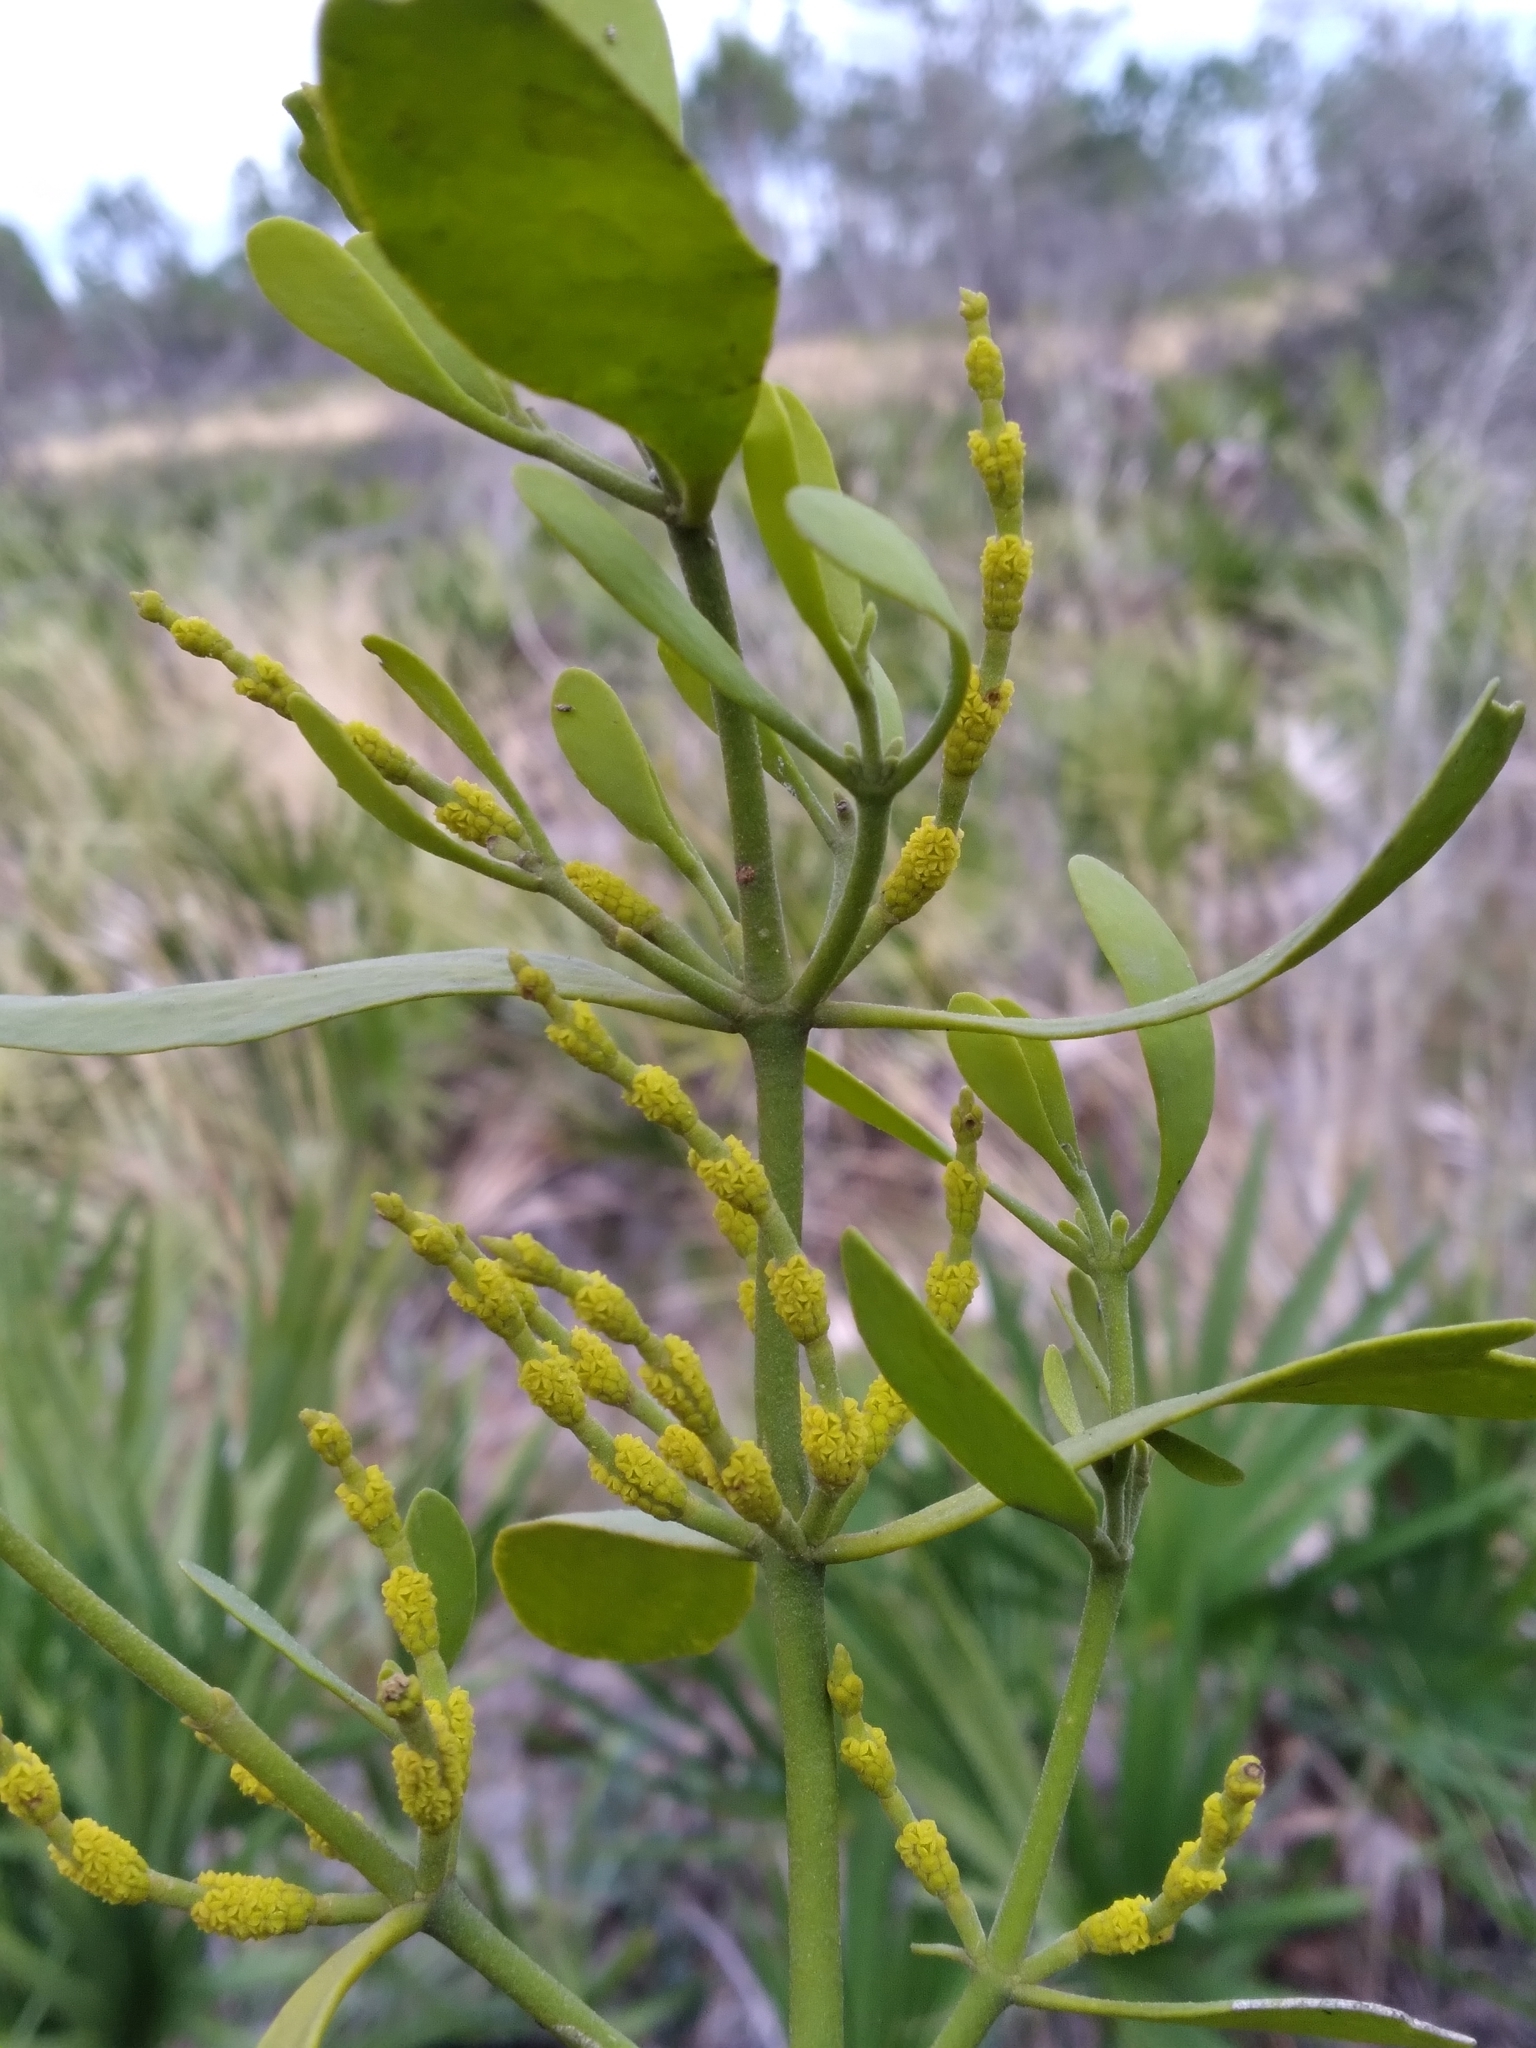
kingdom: Plantae
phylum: Tracheophyta
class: Magnoliopsida
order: Santalales
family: Viscaceae
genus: Phoradendron
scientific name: Phoradendron leucarpum
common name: Pacific mistletoe
